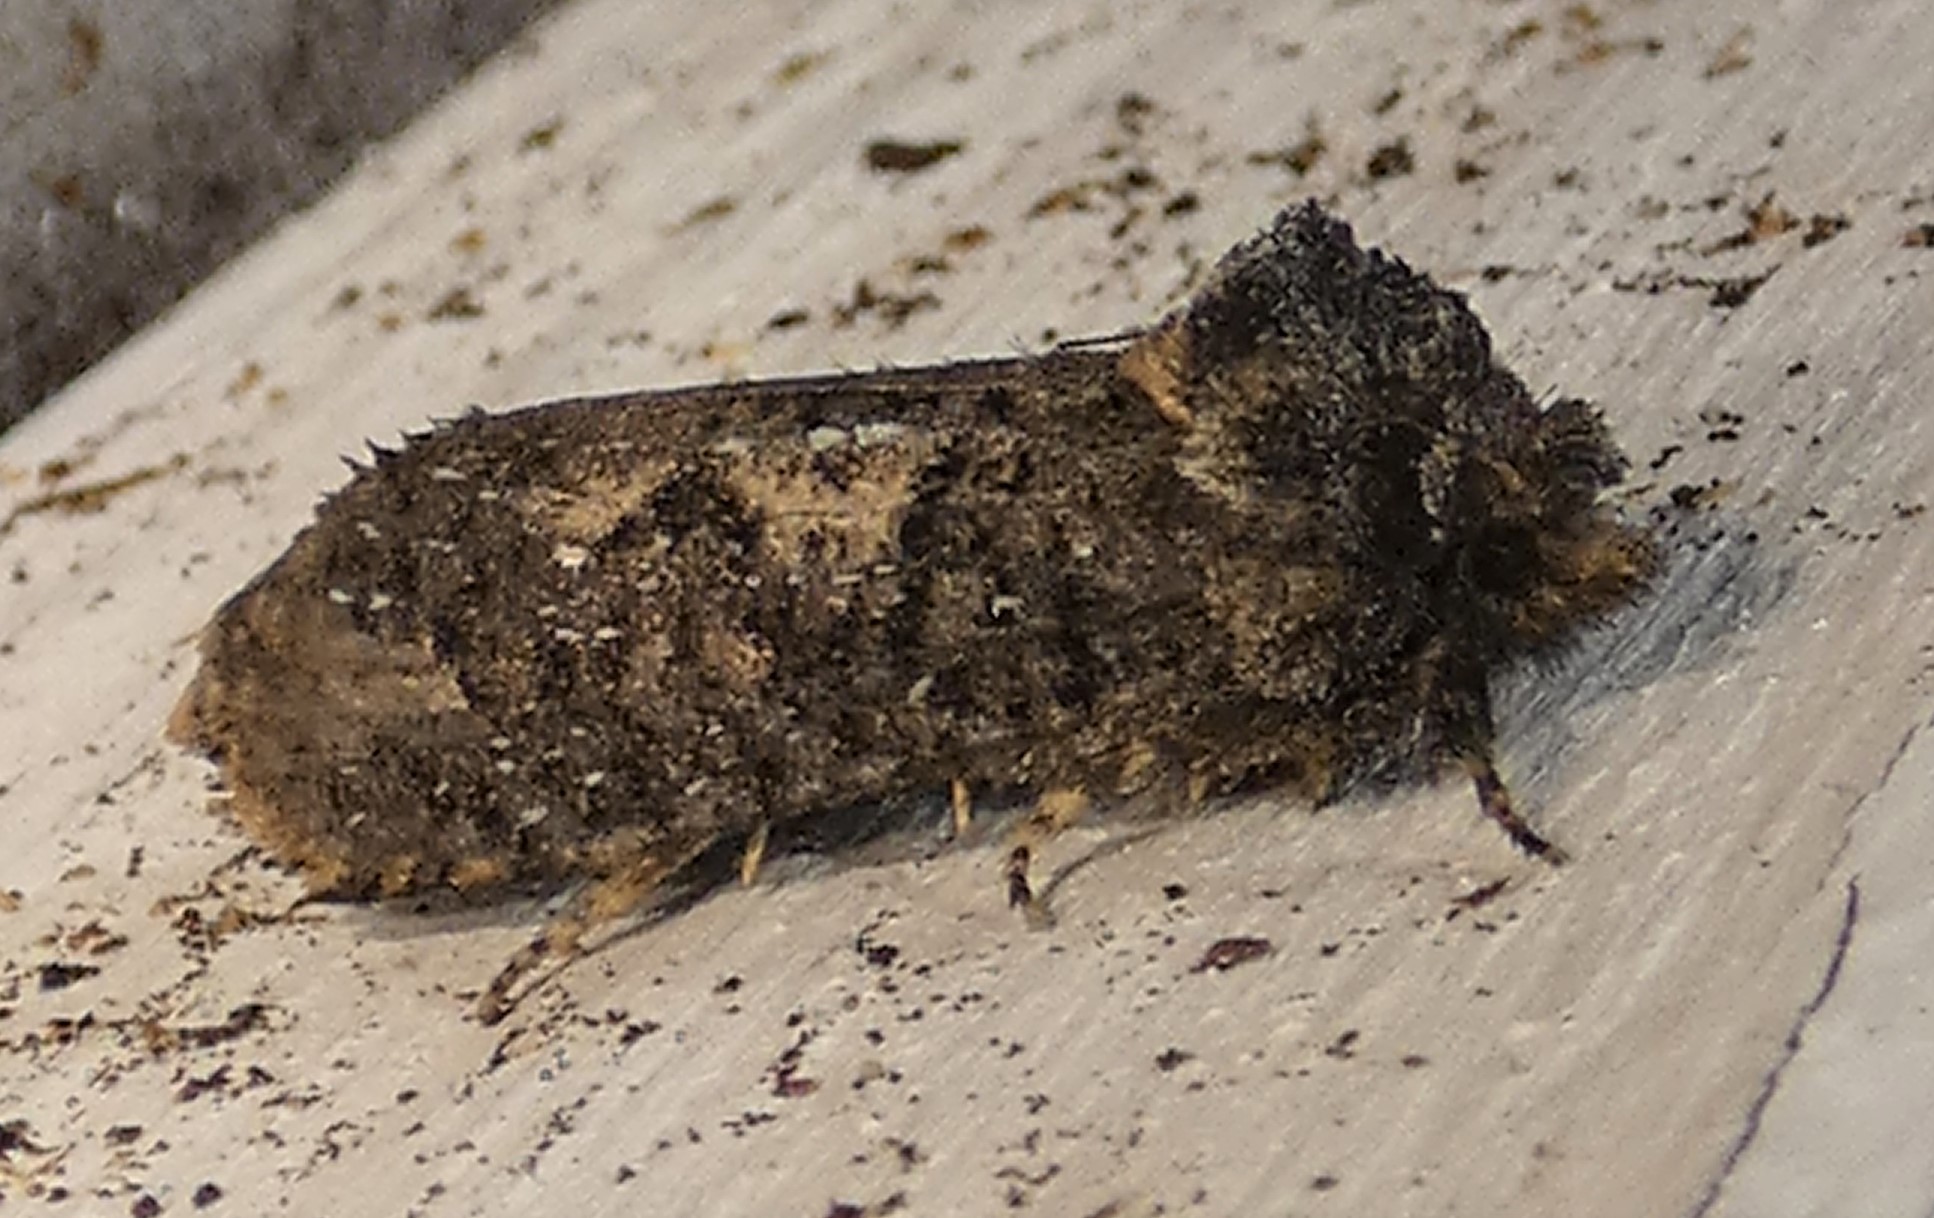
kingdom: Animalia
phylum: Arthropoda
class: Insecta
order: Lepidoptera
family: Tineidae
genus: Acrolophus
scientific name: Acrolophus arcanella
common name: Arcane grass tubeworm moth
